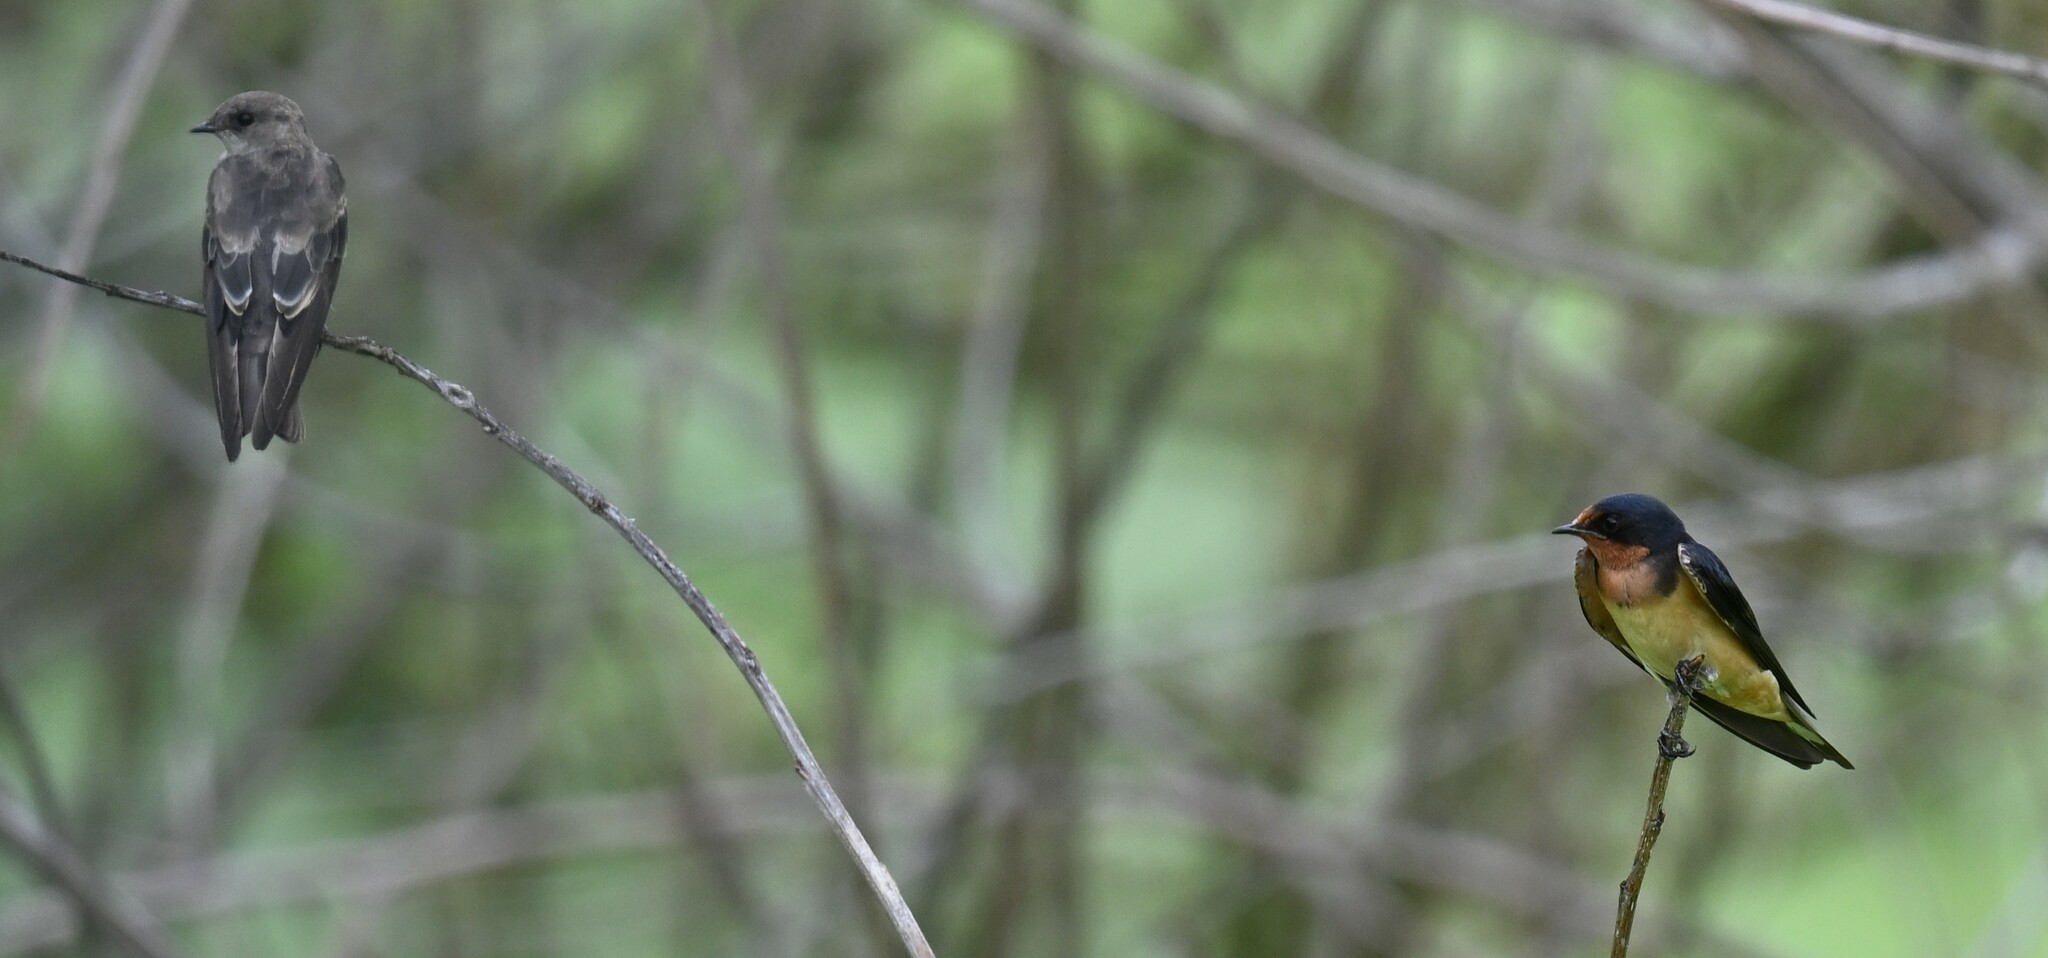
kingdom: Animalia
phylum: Chordata
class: Aves
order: Passeriformes
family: Hirundinidae
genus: Stelgidopteryx
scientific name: Stelgidopteryx serripennis
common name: Northern rough-winged swallow
